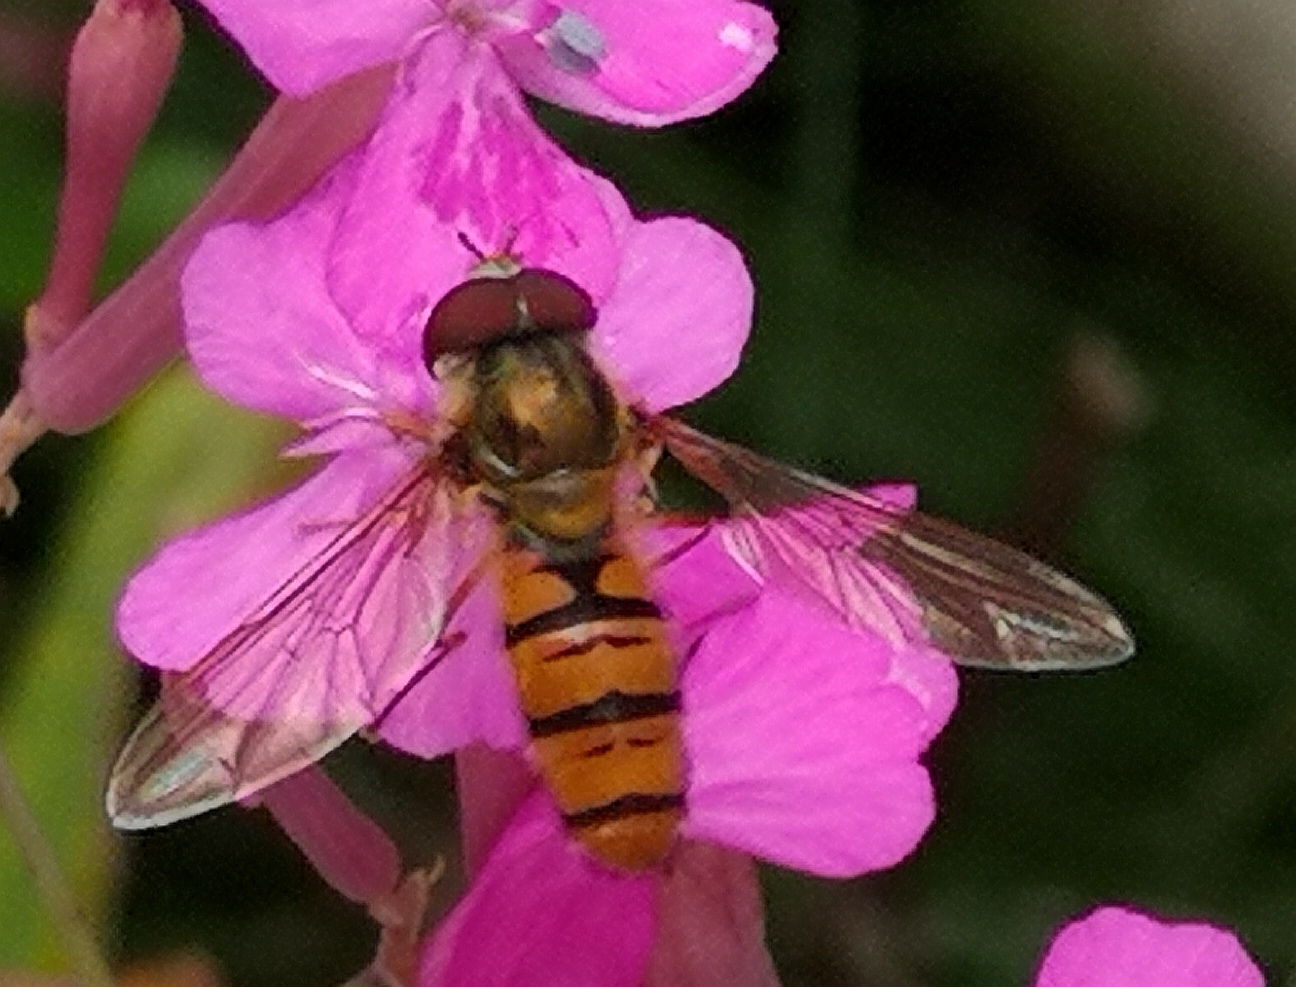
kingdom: Animalia
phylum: Arthropoda
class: Insecta
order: Diptera
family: Syrphidae
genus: Episyrphus
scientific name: Episyrphus balteatus
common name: Marmalade hoverfly
